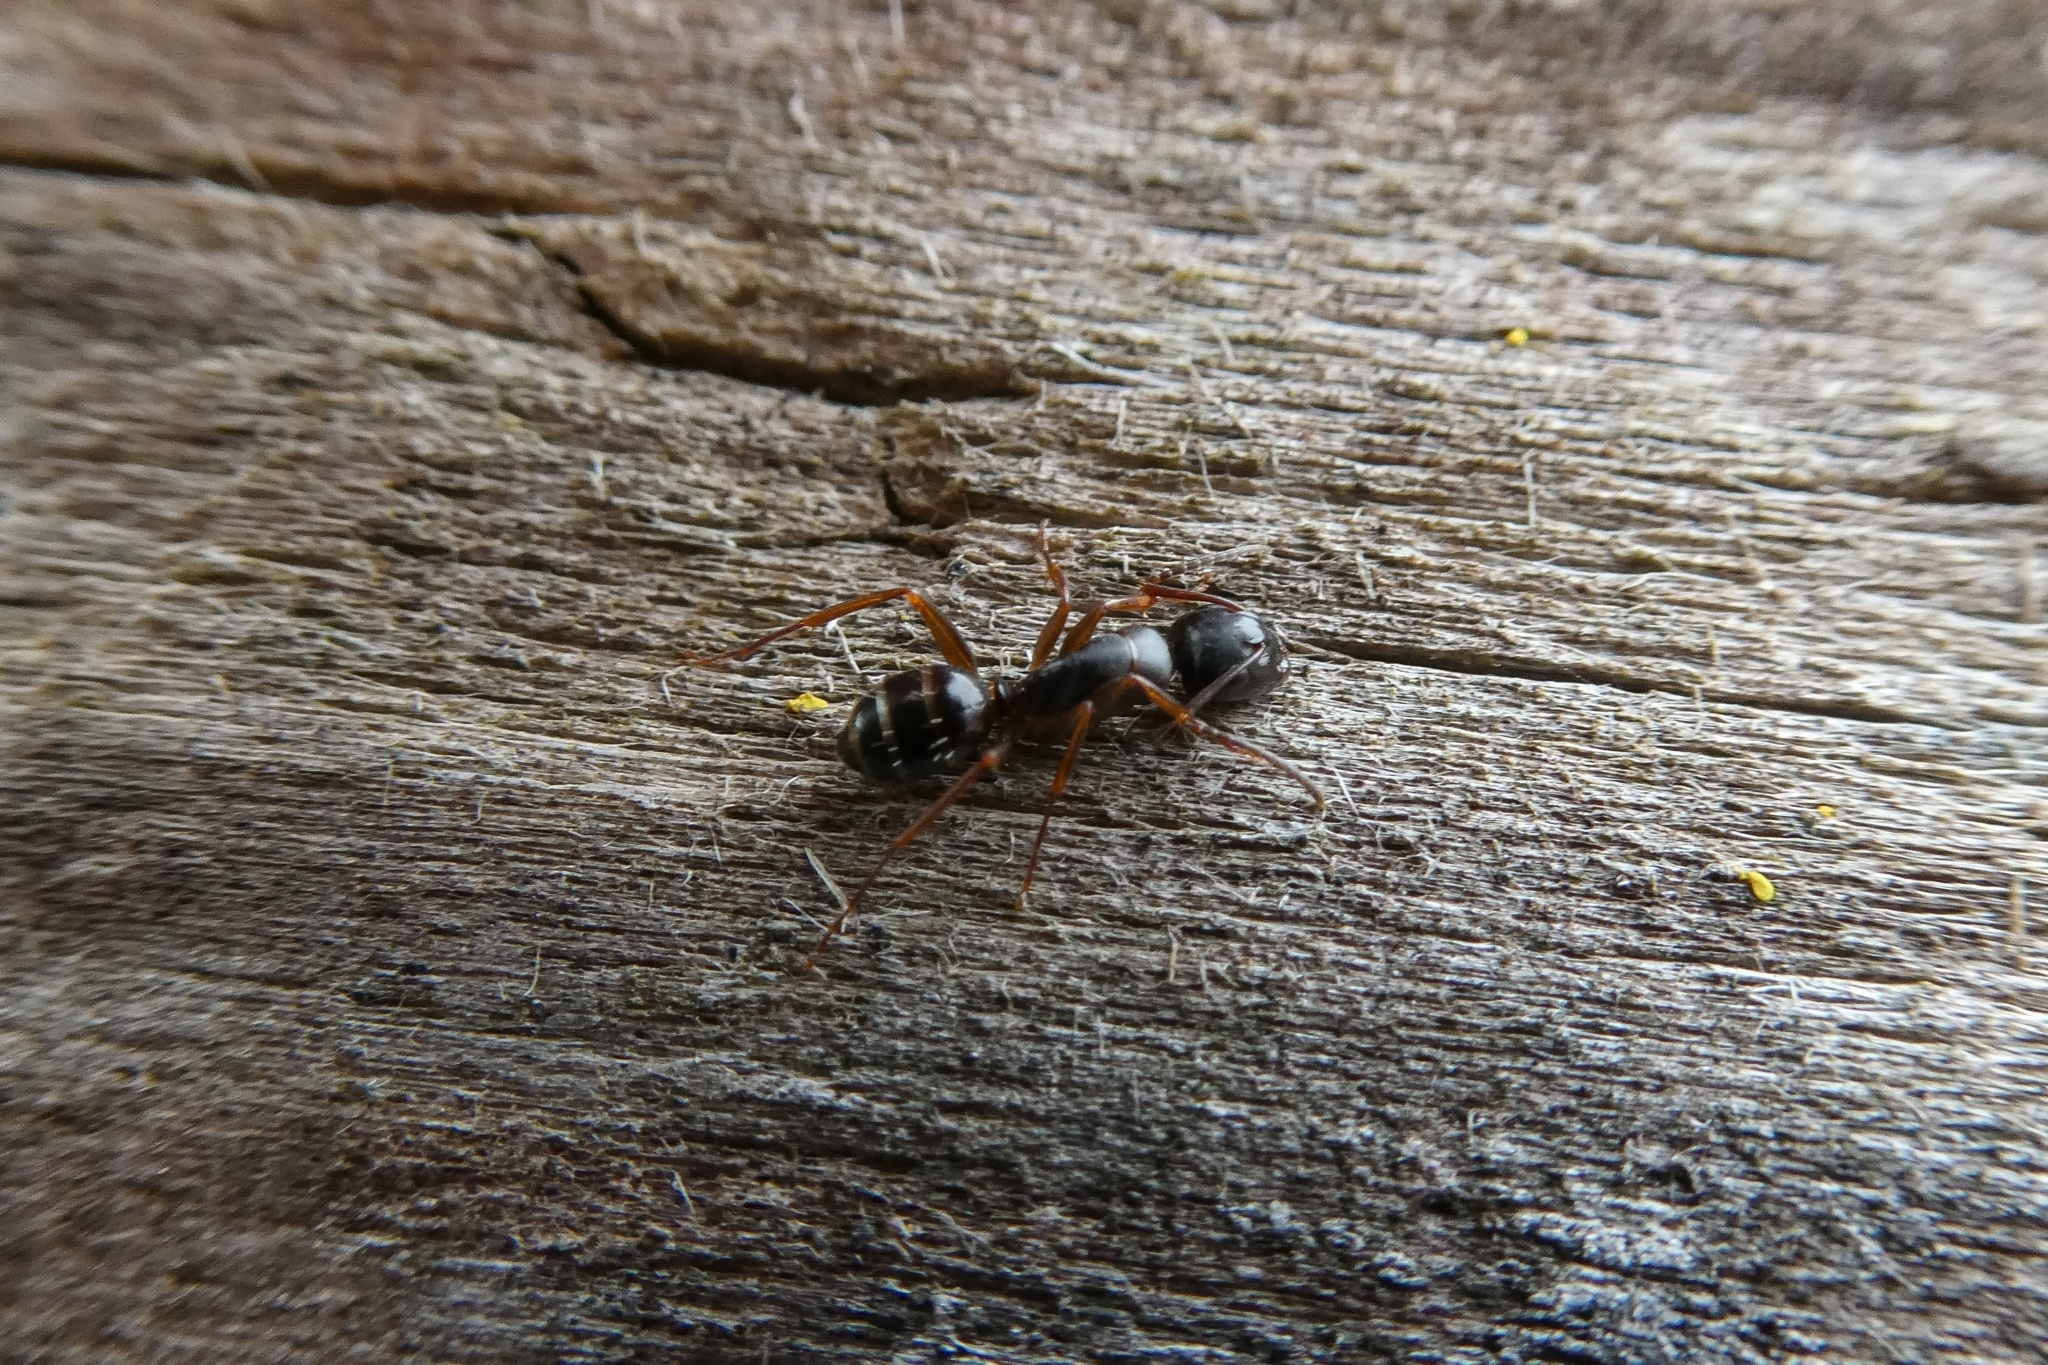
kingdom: Animalia
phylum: Arthropoda
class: Insecta
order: Hymenoptera
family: Formicidae
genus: Camponotus
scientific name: Camponotus fallax
